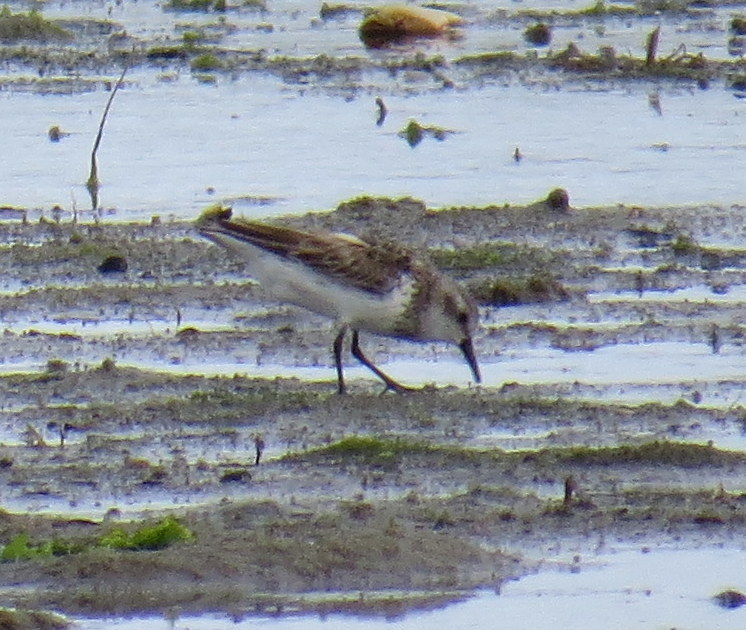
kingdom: Animalia
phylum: Chordata
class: Aves
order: Charadriiformes
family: Scolopacidae
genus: Calidris
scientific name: Calidris pusilla
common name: Semipalmated sandpiper
